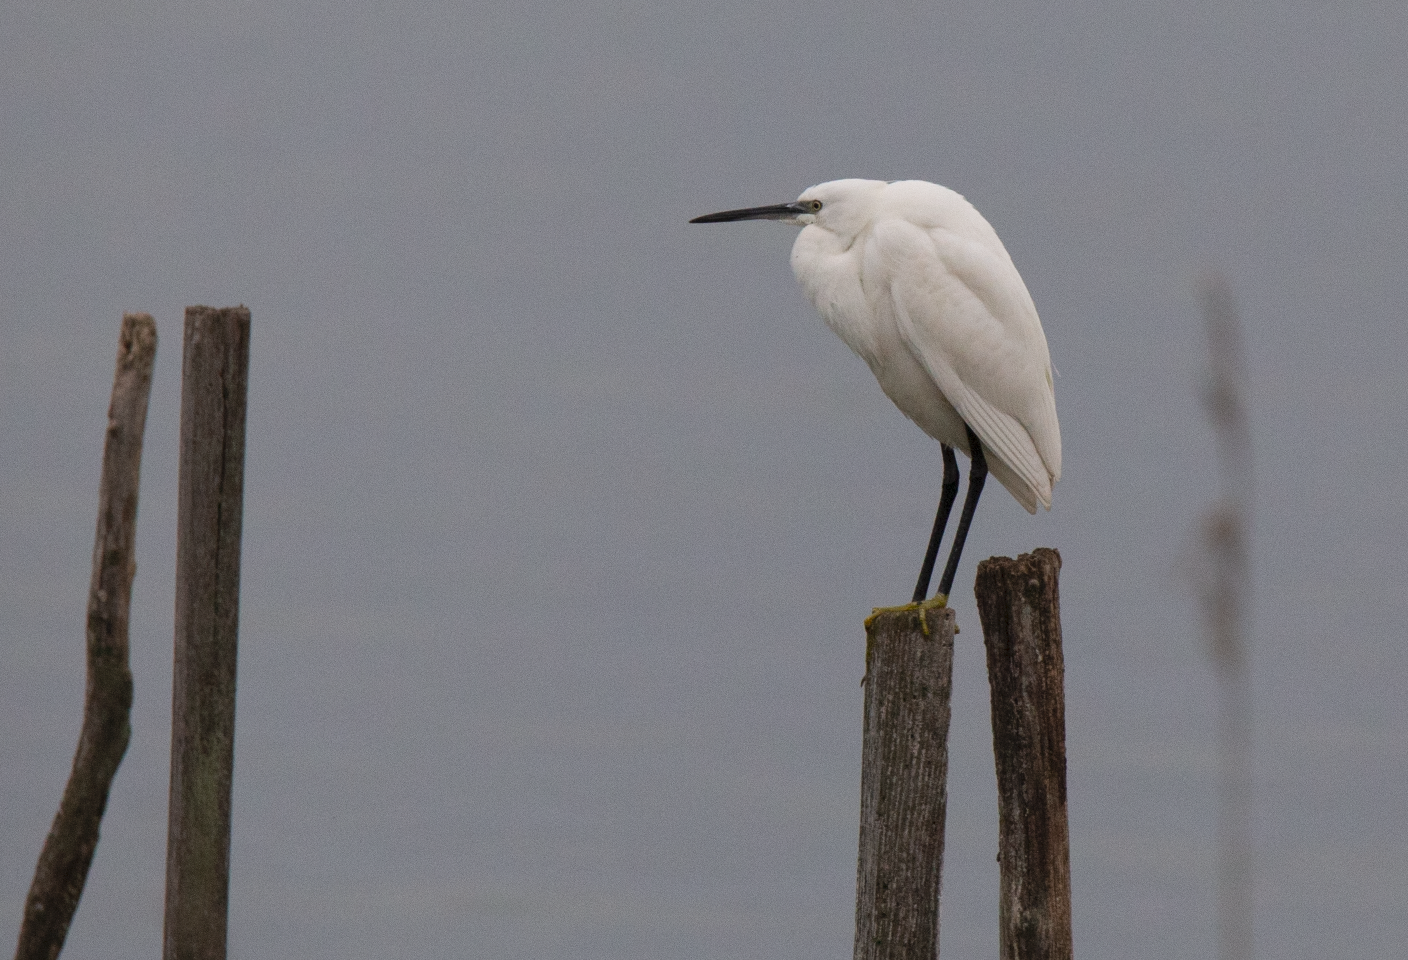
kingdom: Animalia
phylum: Chordata
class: Aves
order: Pelecaniformes
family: Ardeidae
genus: Egretta
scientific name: Egretta garzetta
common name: Little egret
